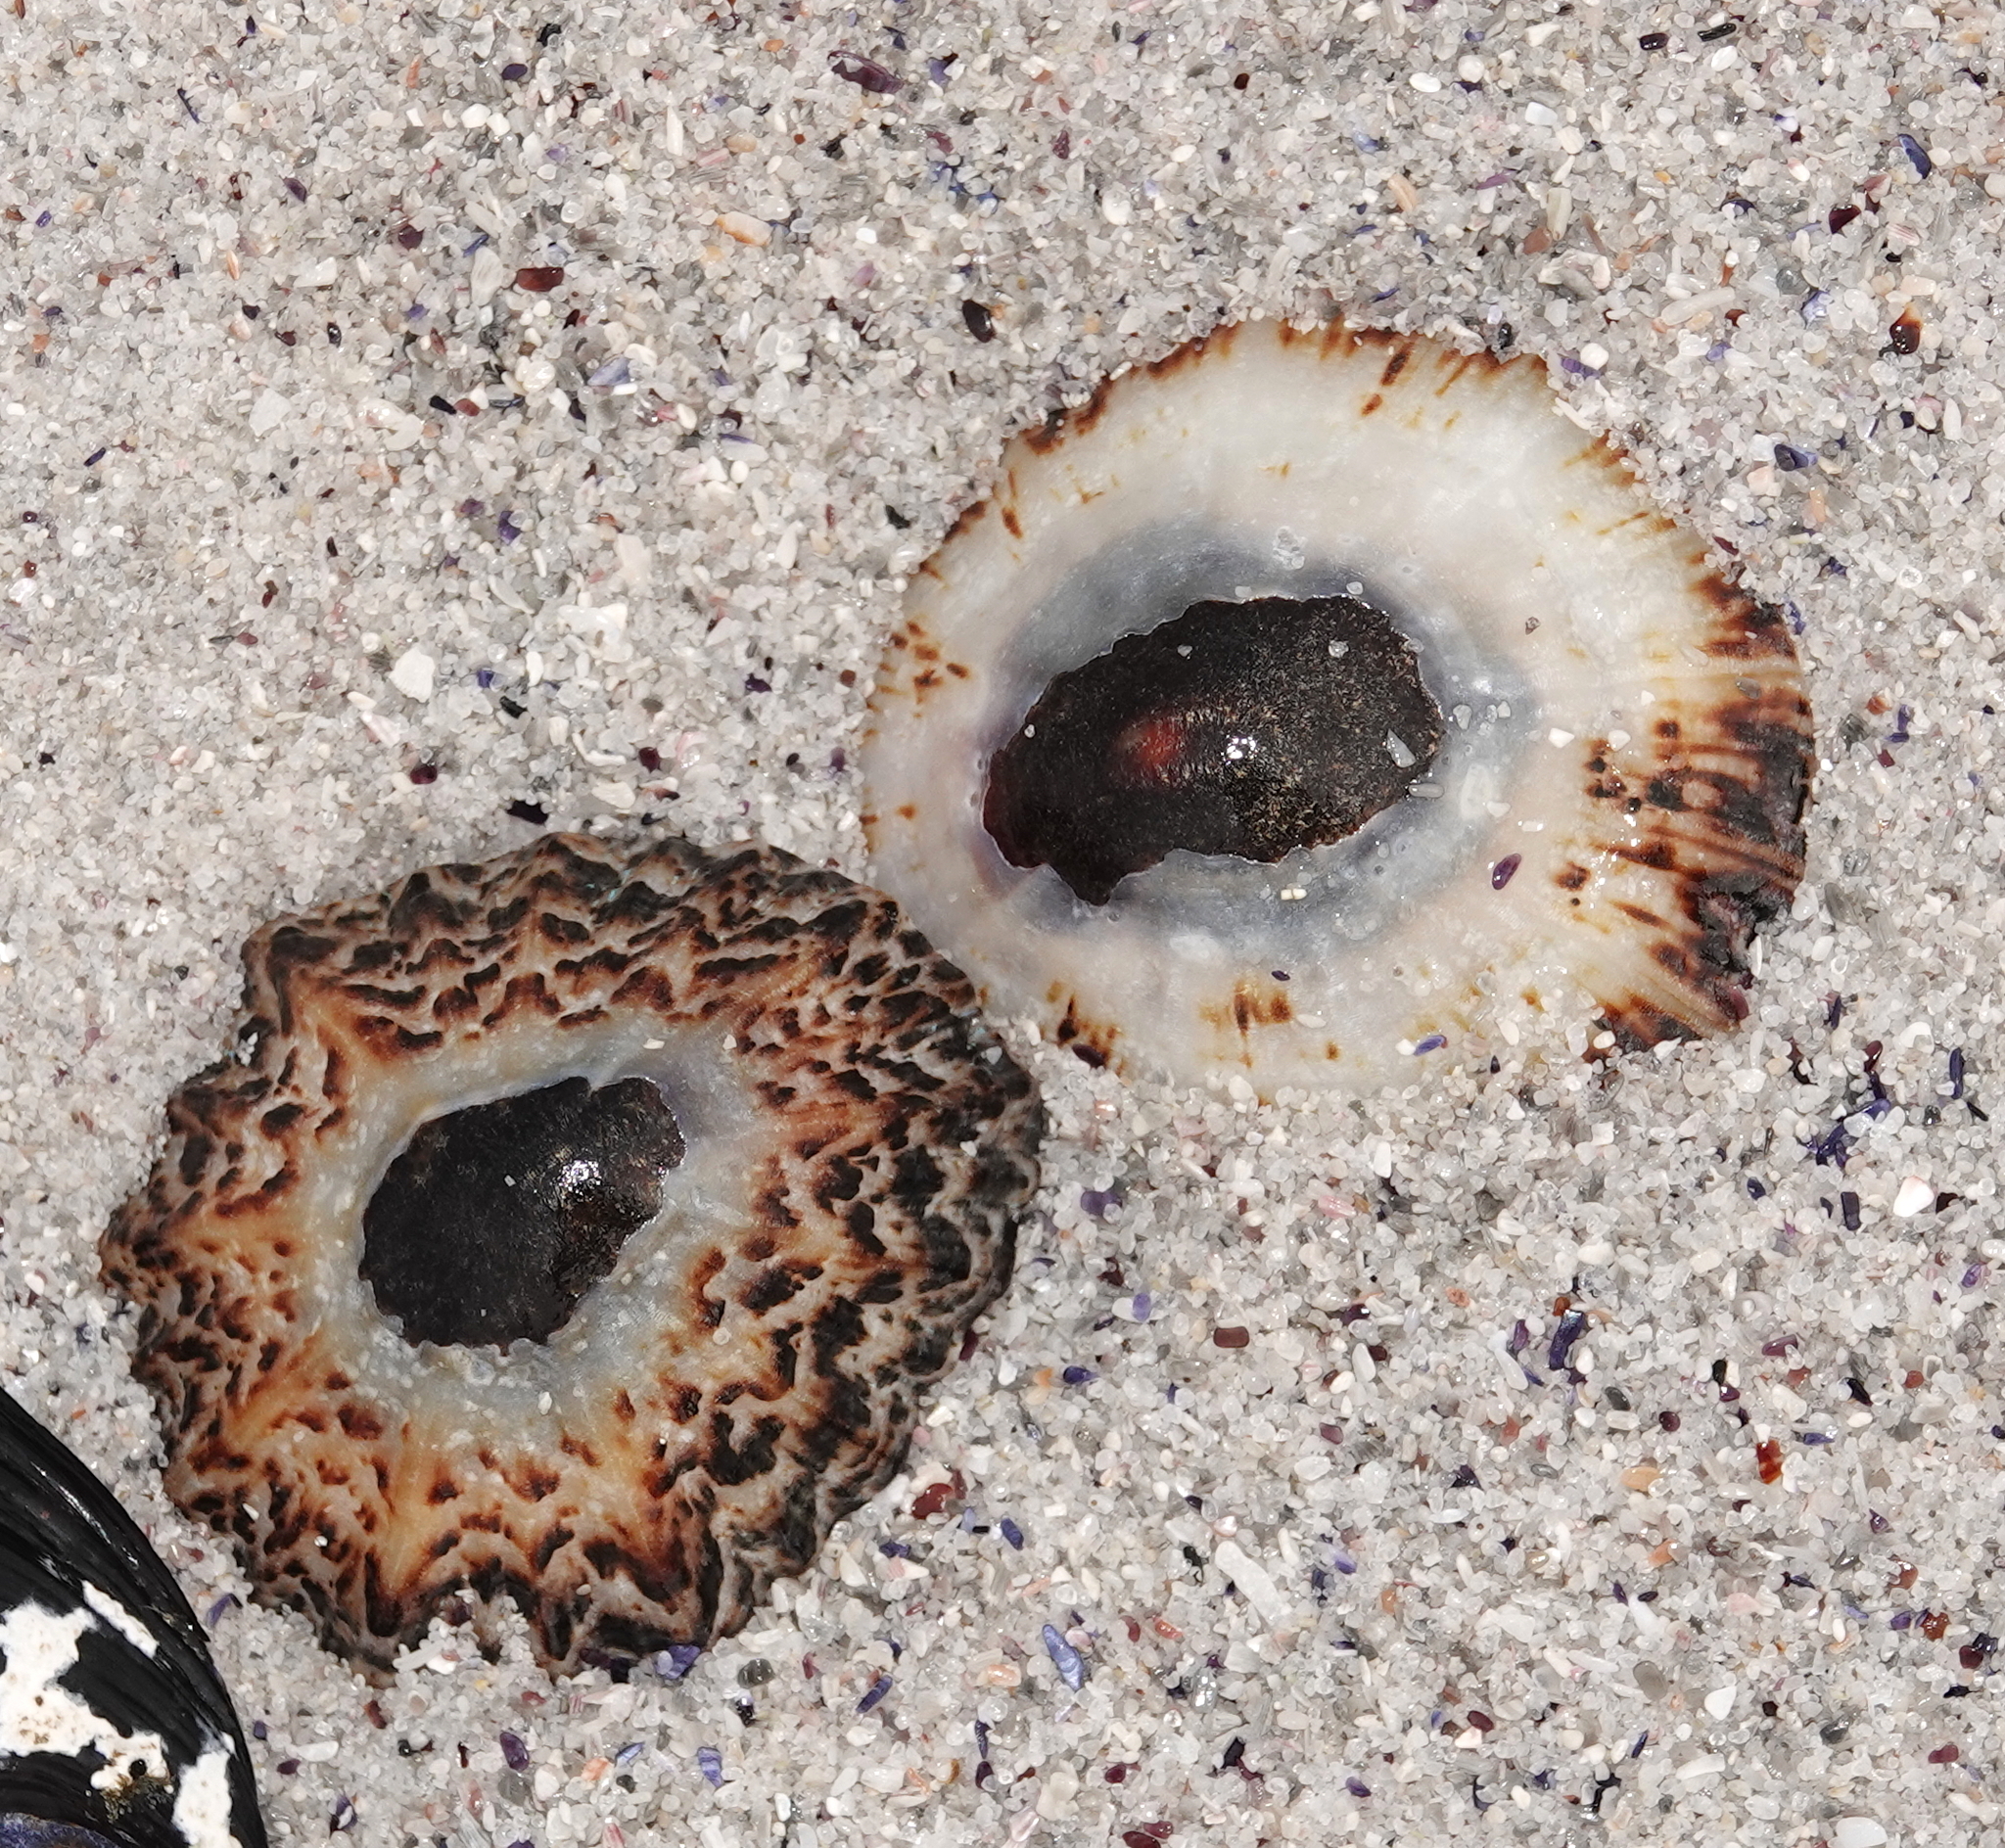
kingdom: Animalia
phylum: Mollusca
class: Gastropoda
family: Patellidae
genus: Cymbula
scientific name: Cymbula granatina
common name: Granite limpet
